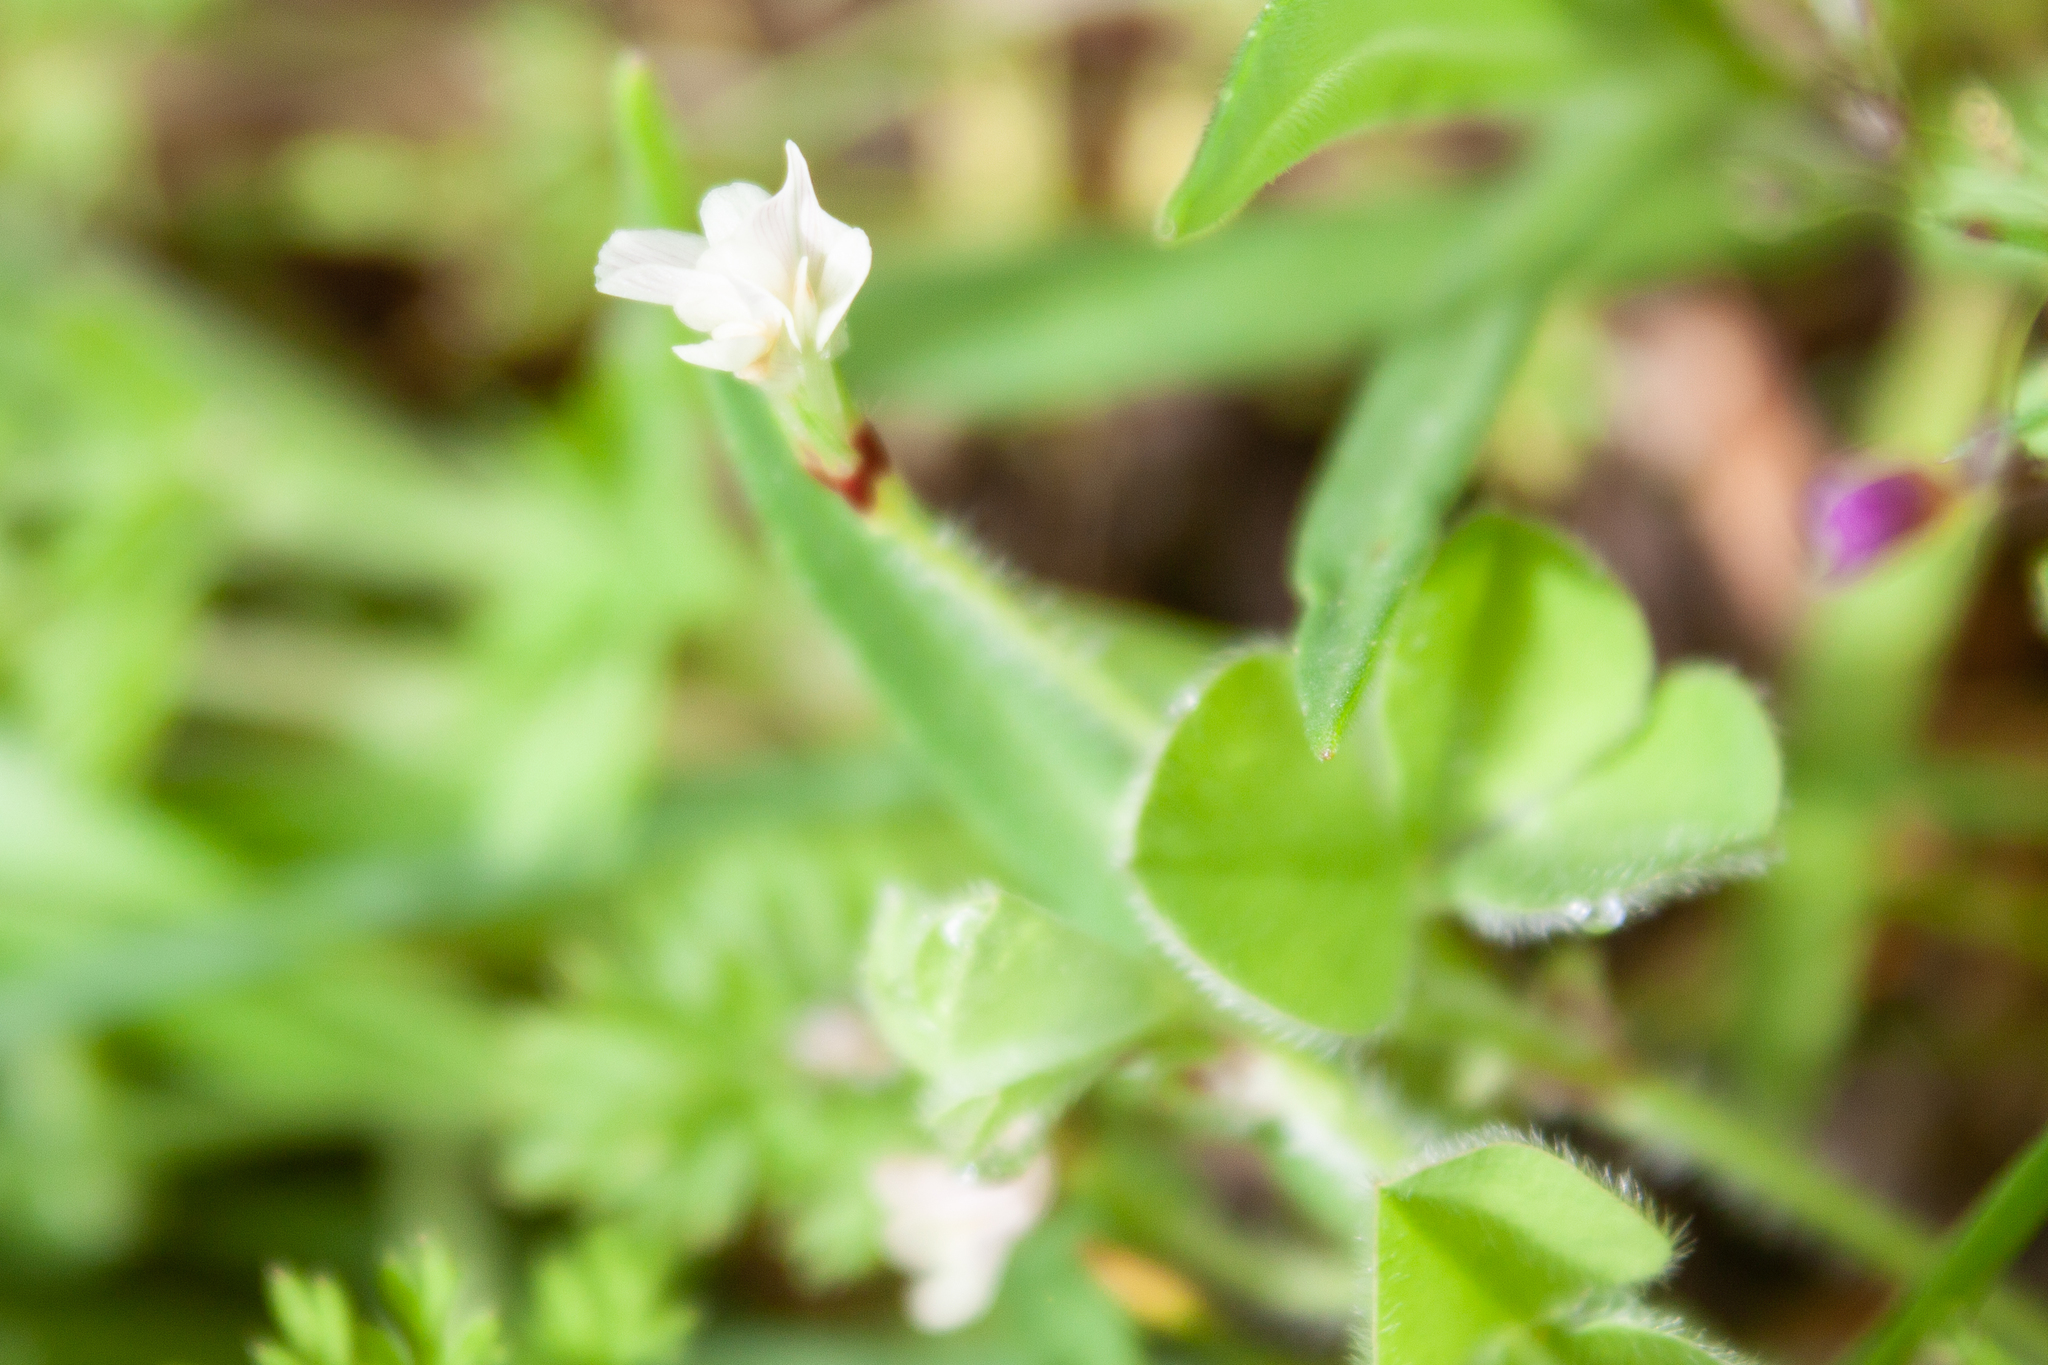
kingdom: Plantae
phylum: Tracheophyta
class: Magnoliopsida
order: Fabales
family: Fabaceae
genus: Trifolium
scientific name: Trifolium subterraneum
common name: Subterranean clover
